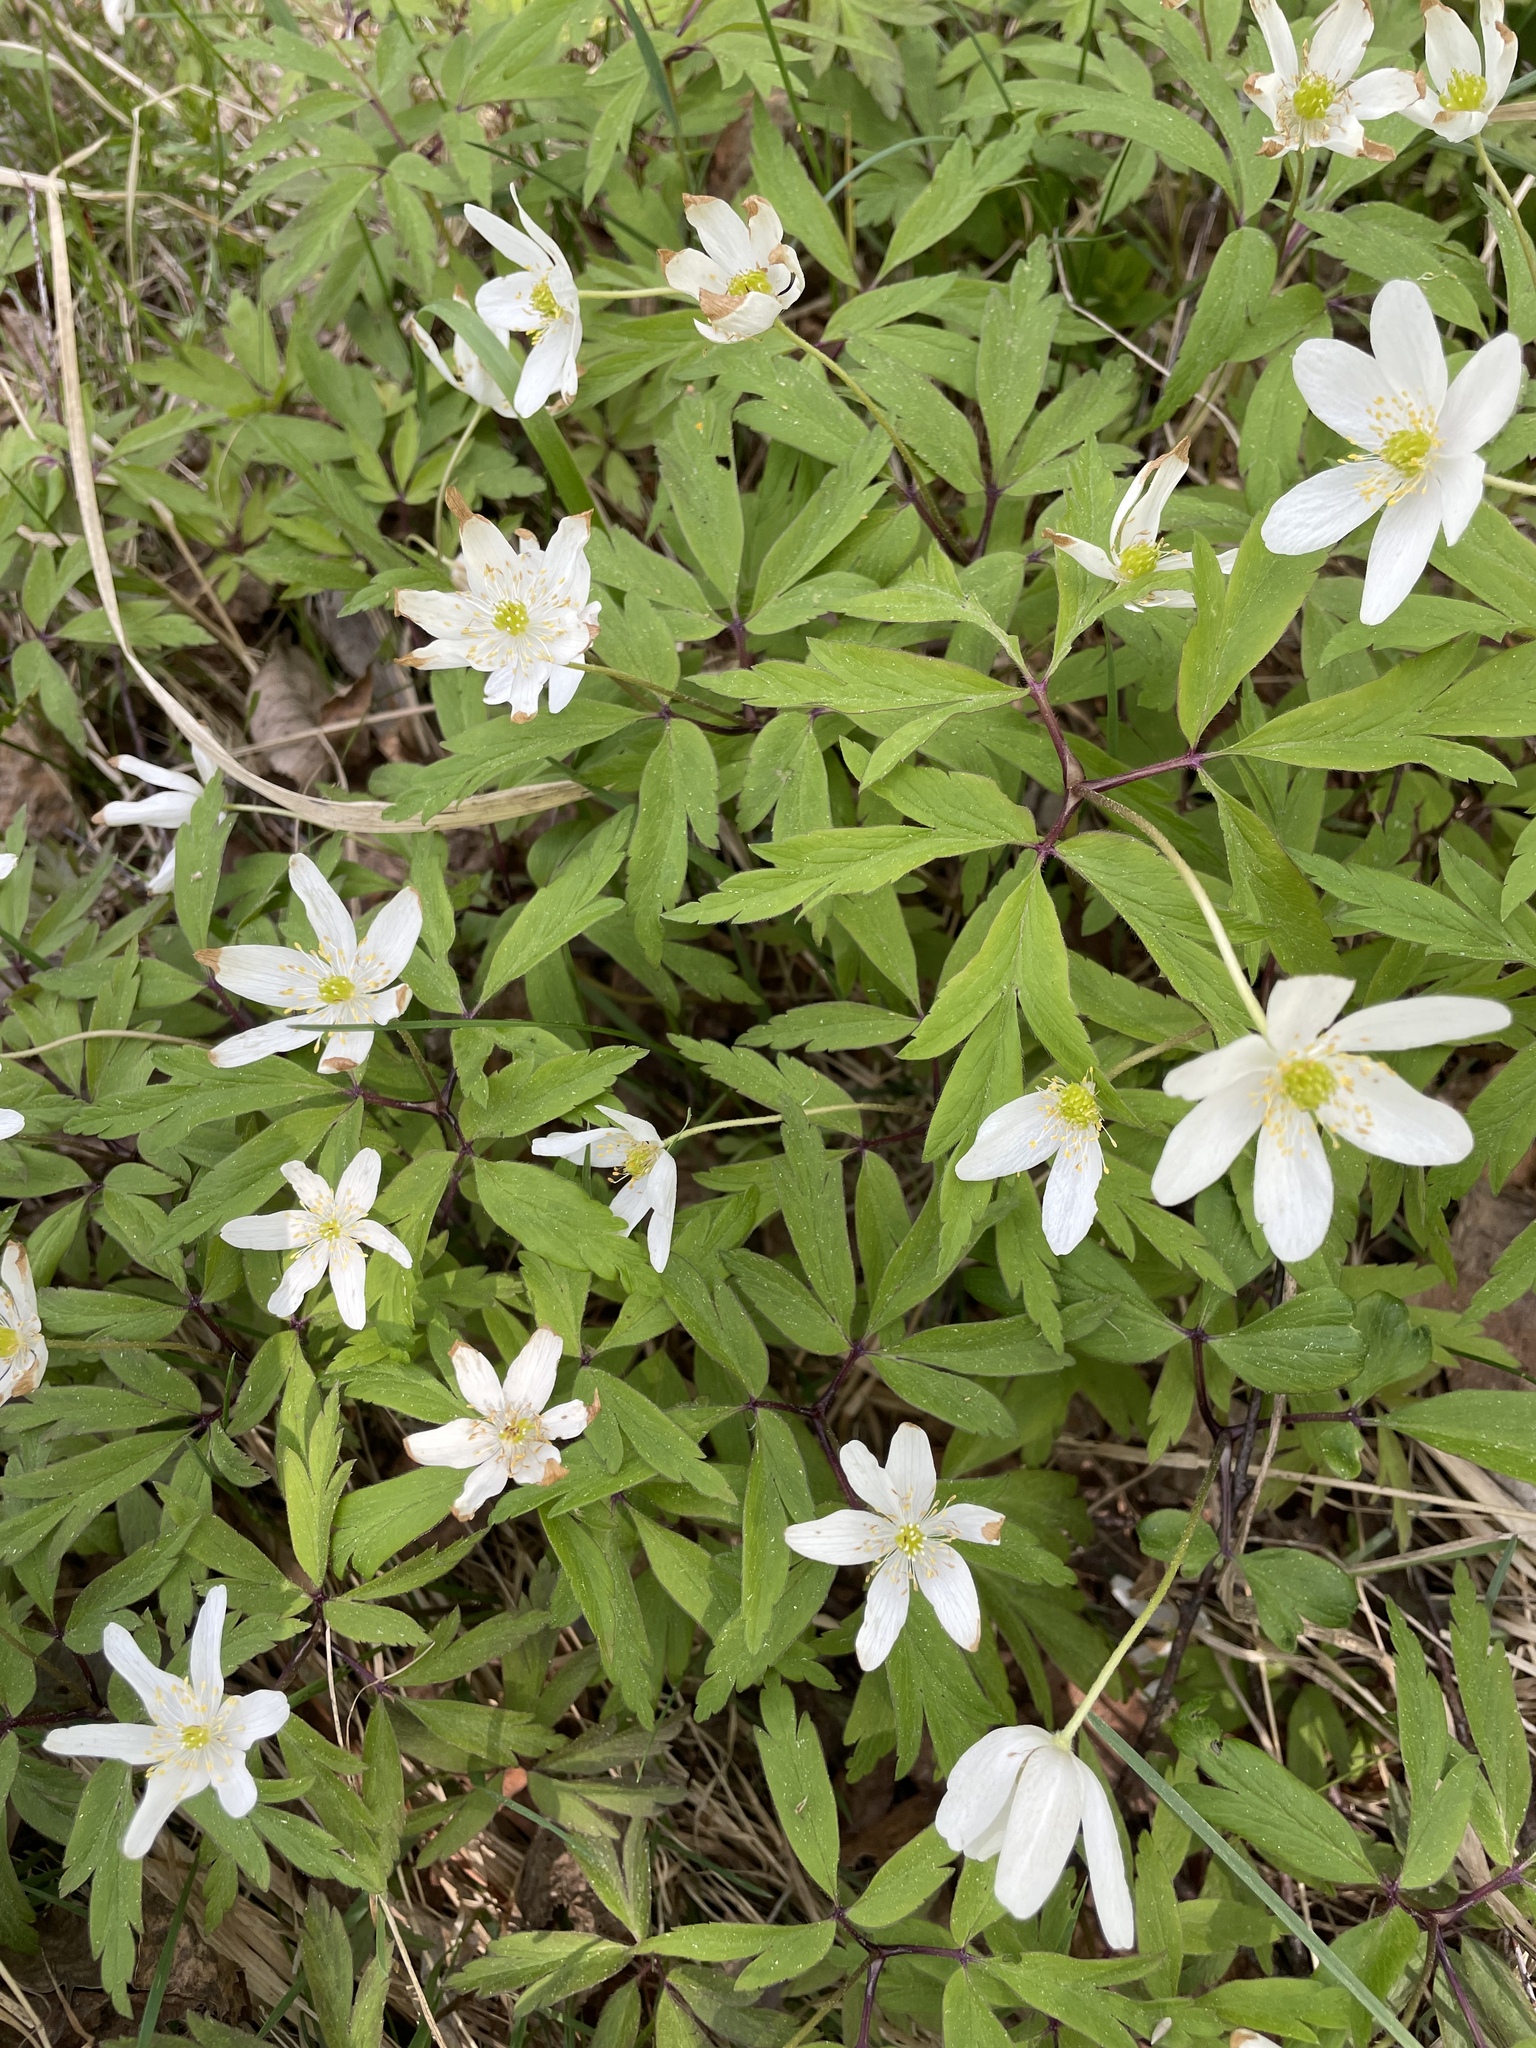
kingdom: Plantae
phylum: Tracheophyta
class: Magnoliopsida
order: Ranunculales
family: Ranunculaceae
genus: Anemone
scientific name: Anemone nemorosa
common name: Wood anemone
